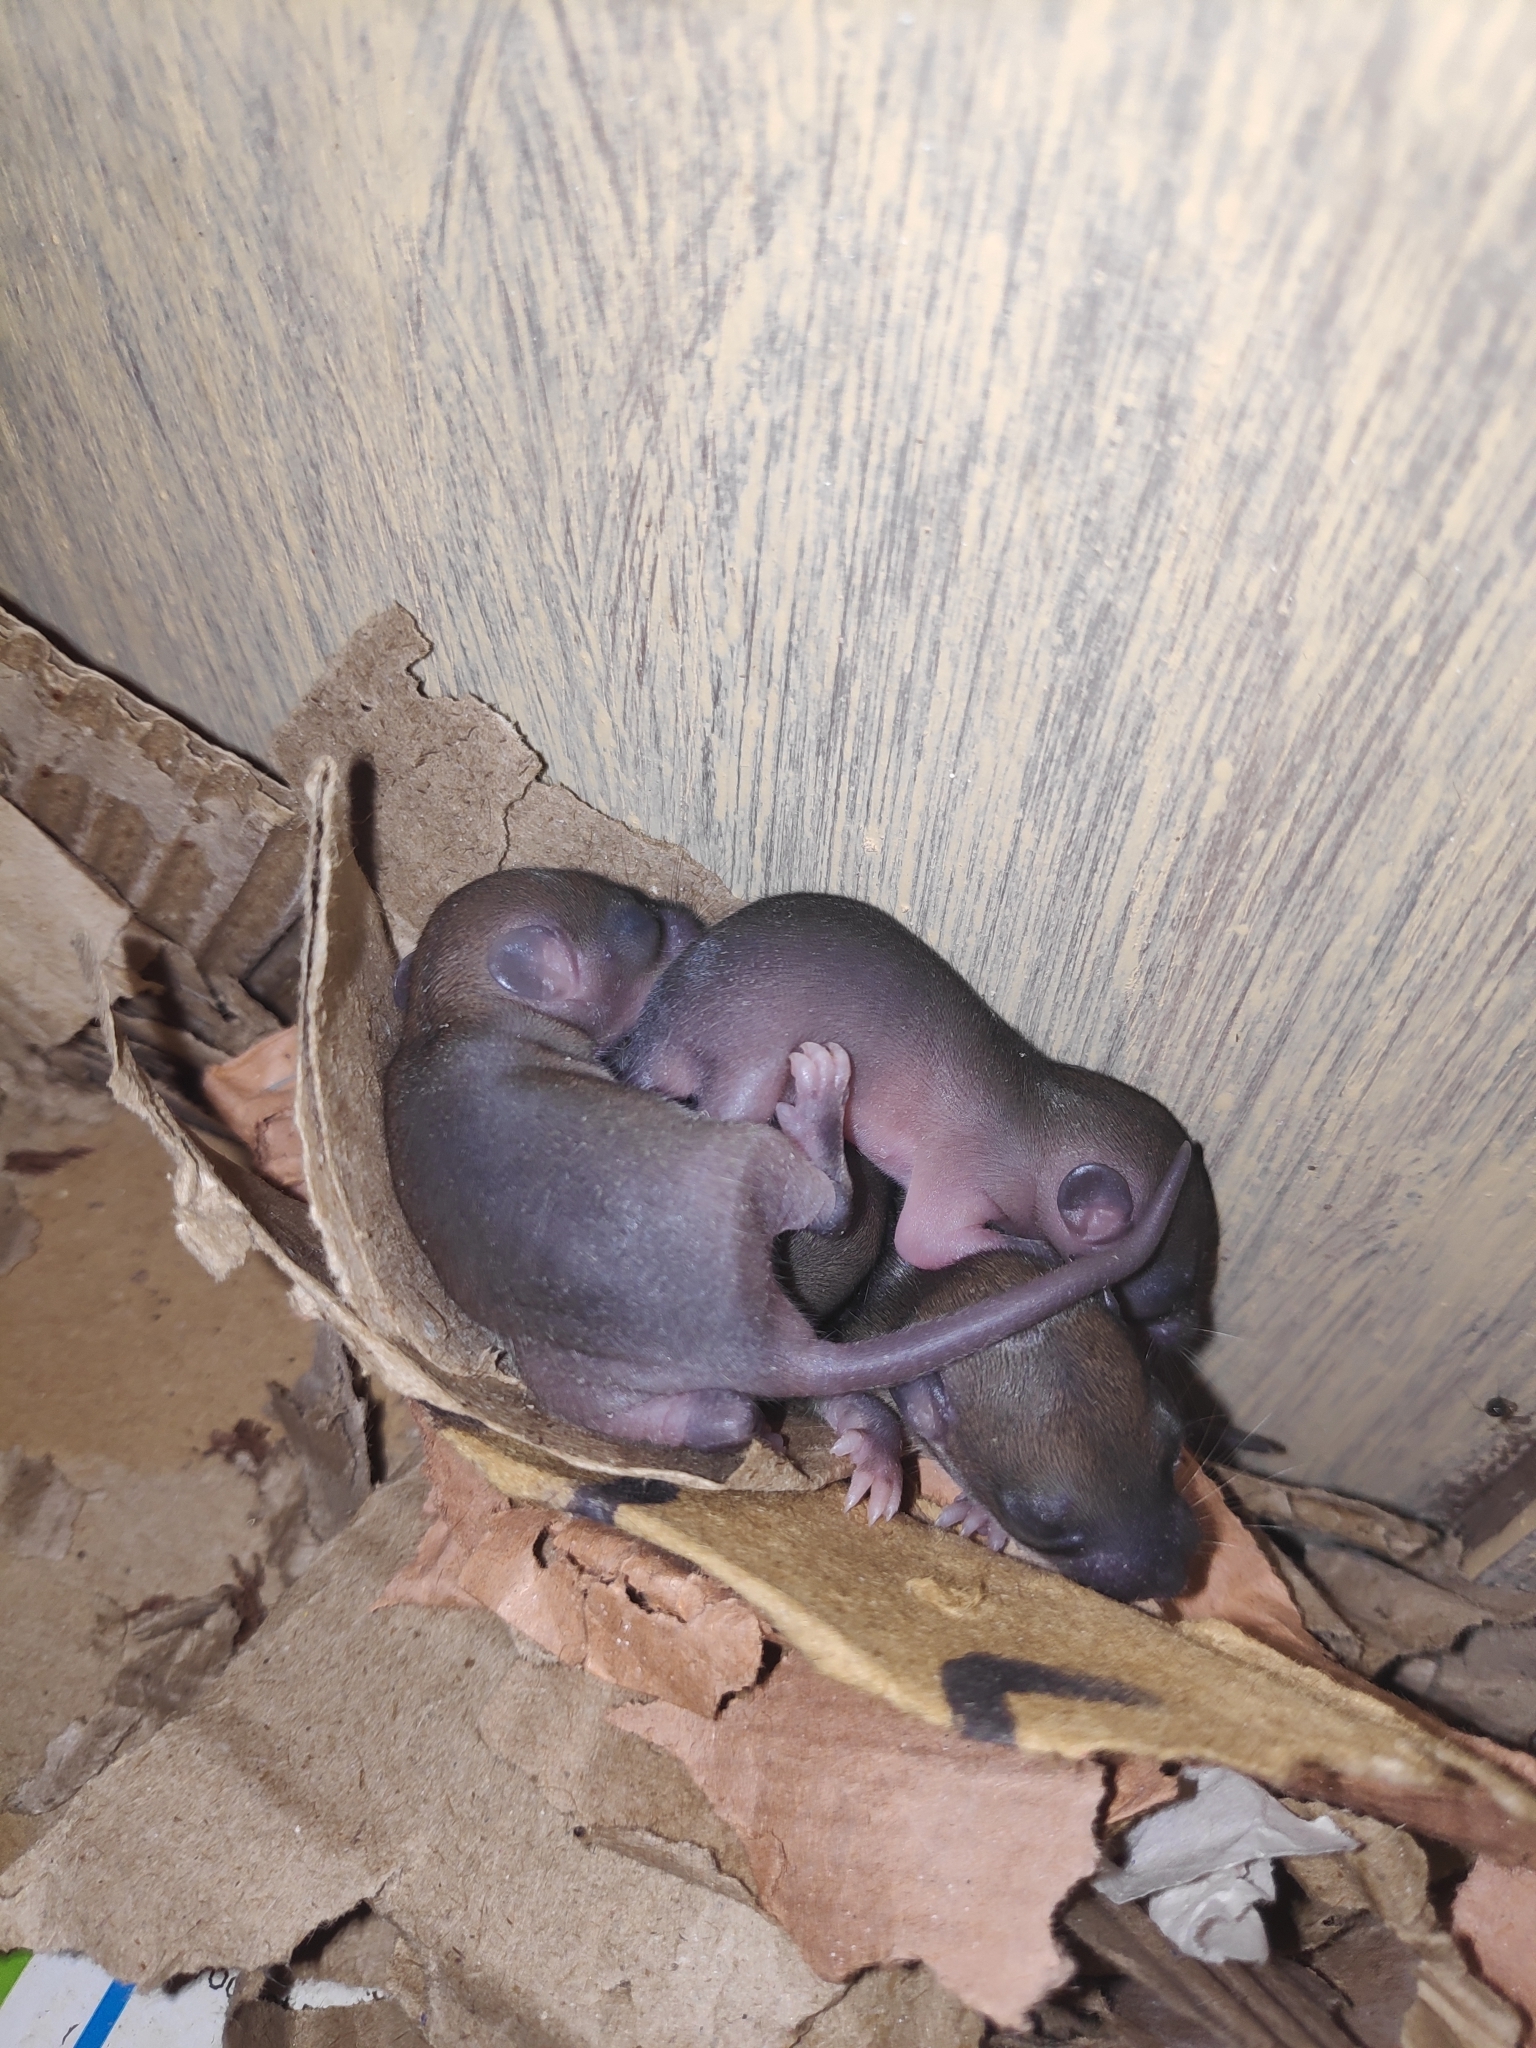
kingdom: Animalia
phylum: Chordata
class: Mammalia
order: Rodentia
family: Muridae
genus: Rattus
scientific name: Rattus rattus
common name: Black rat
